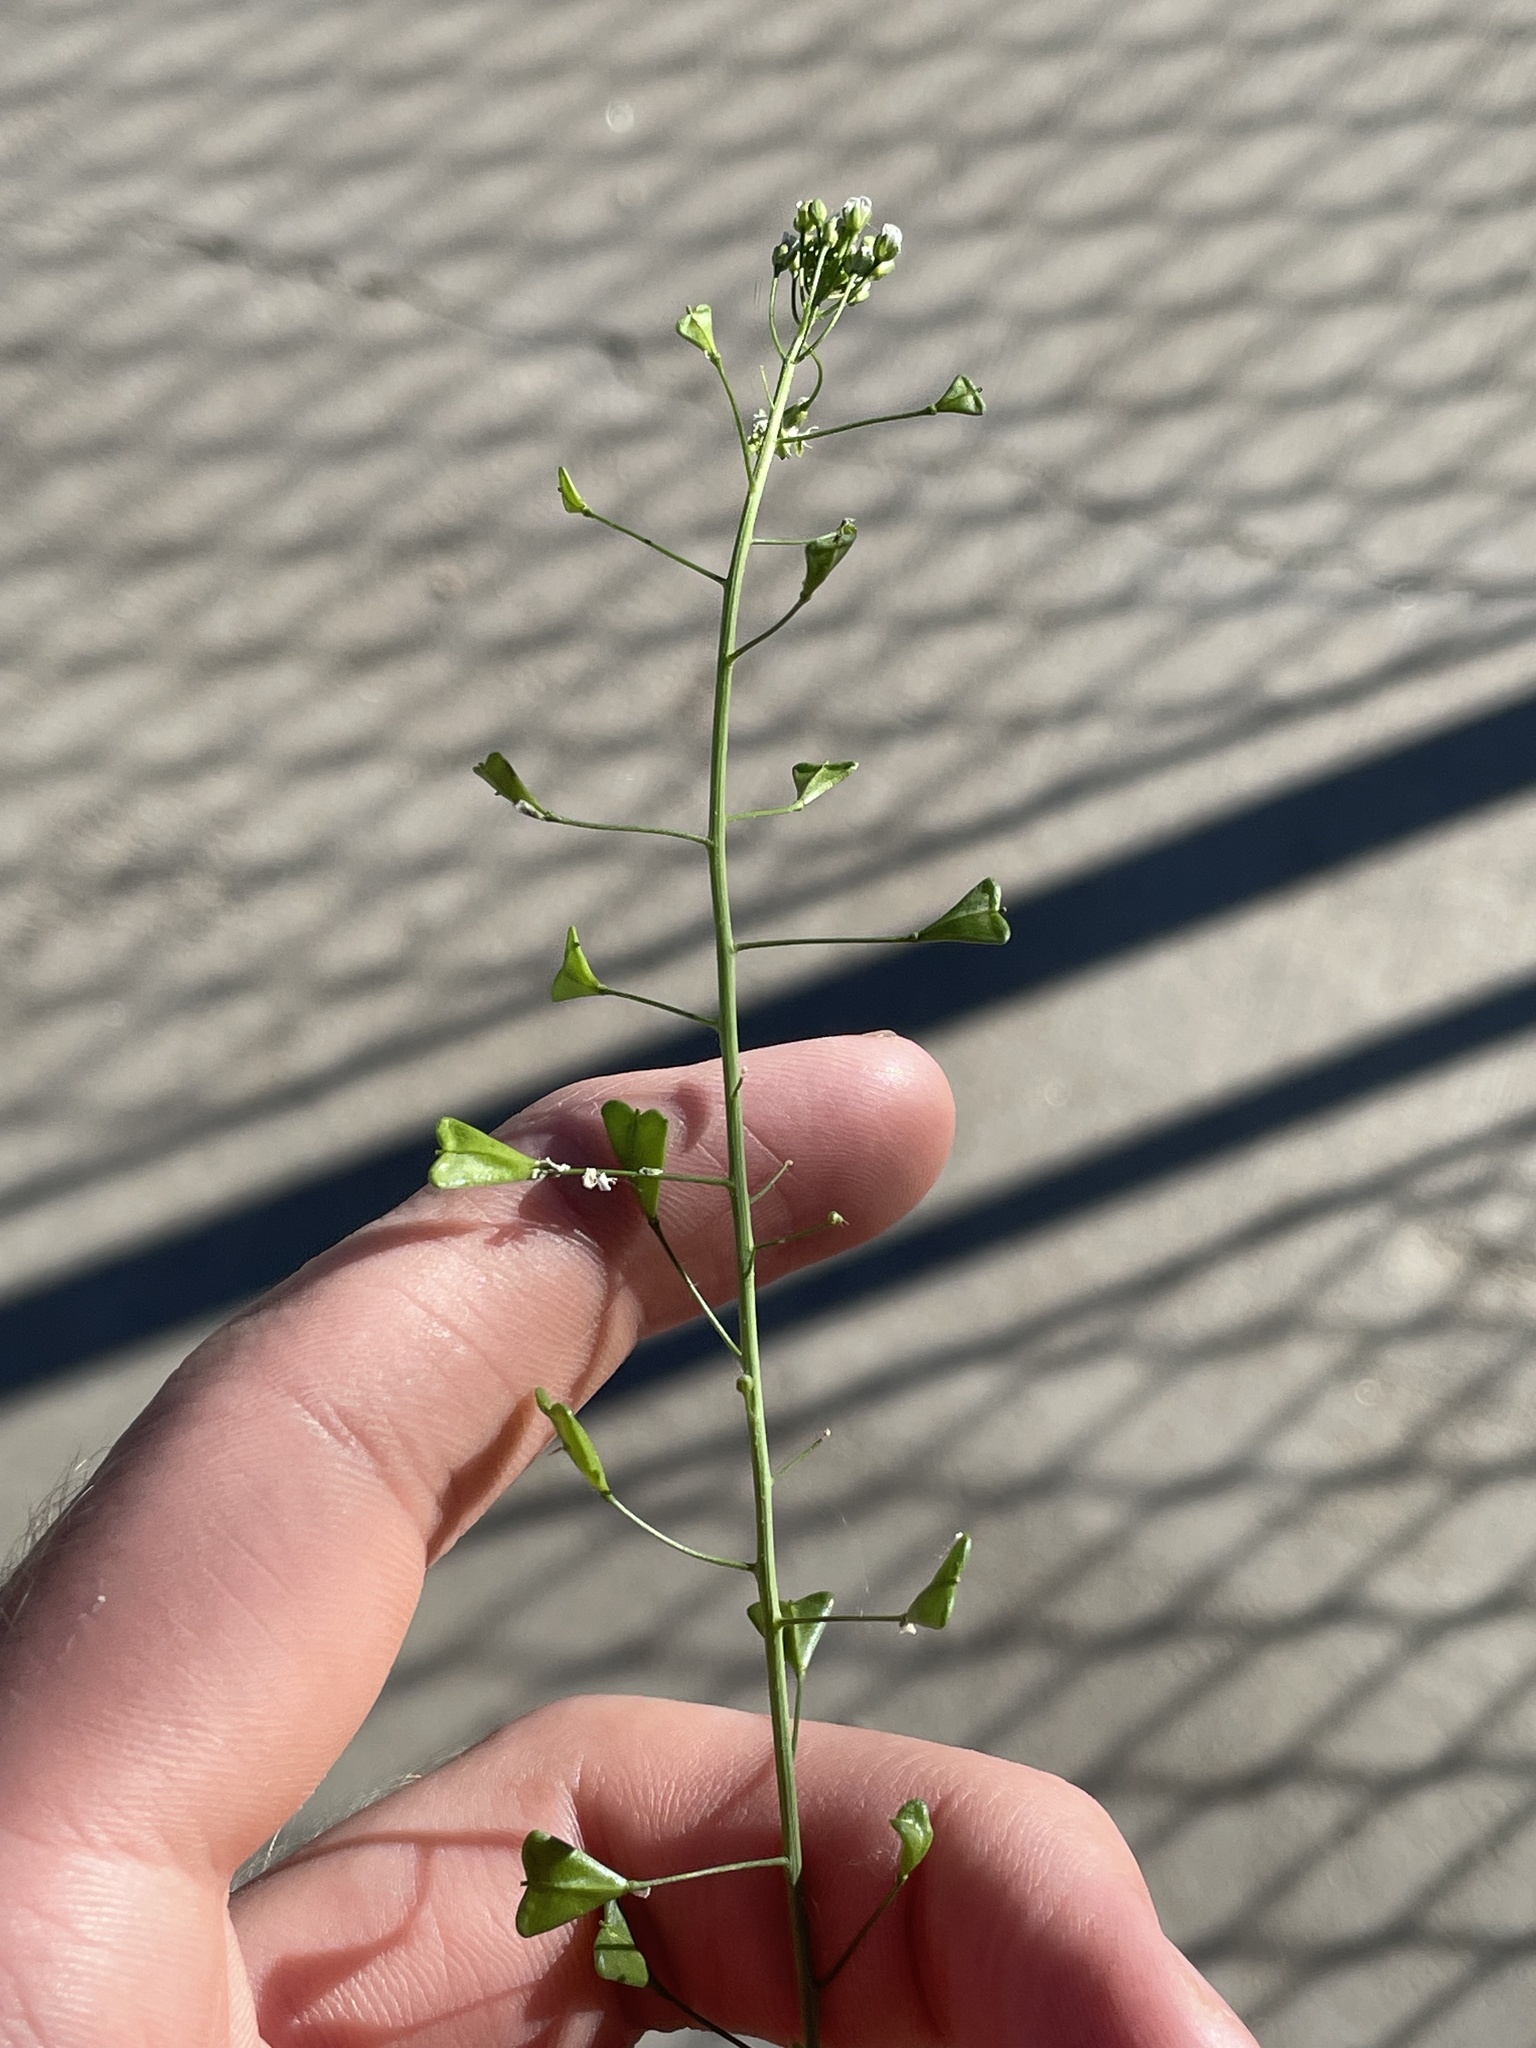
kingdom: Plantae
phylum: Tracheophyta
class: Magnoliopsida
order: Brassicales
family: Brassicaceae
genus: Capsella
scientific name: Capsella bursa-pastoris
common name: Shepherd's purse
